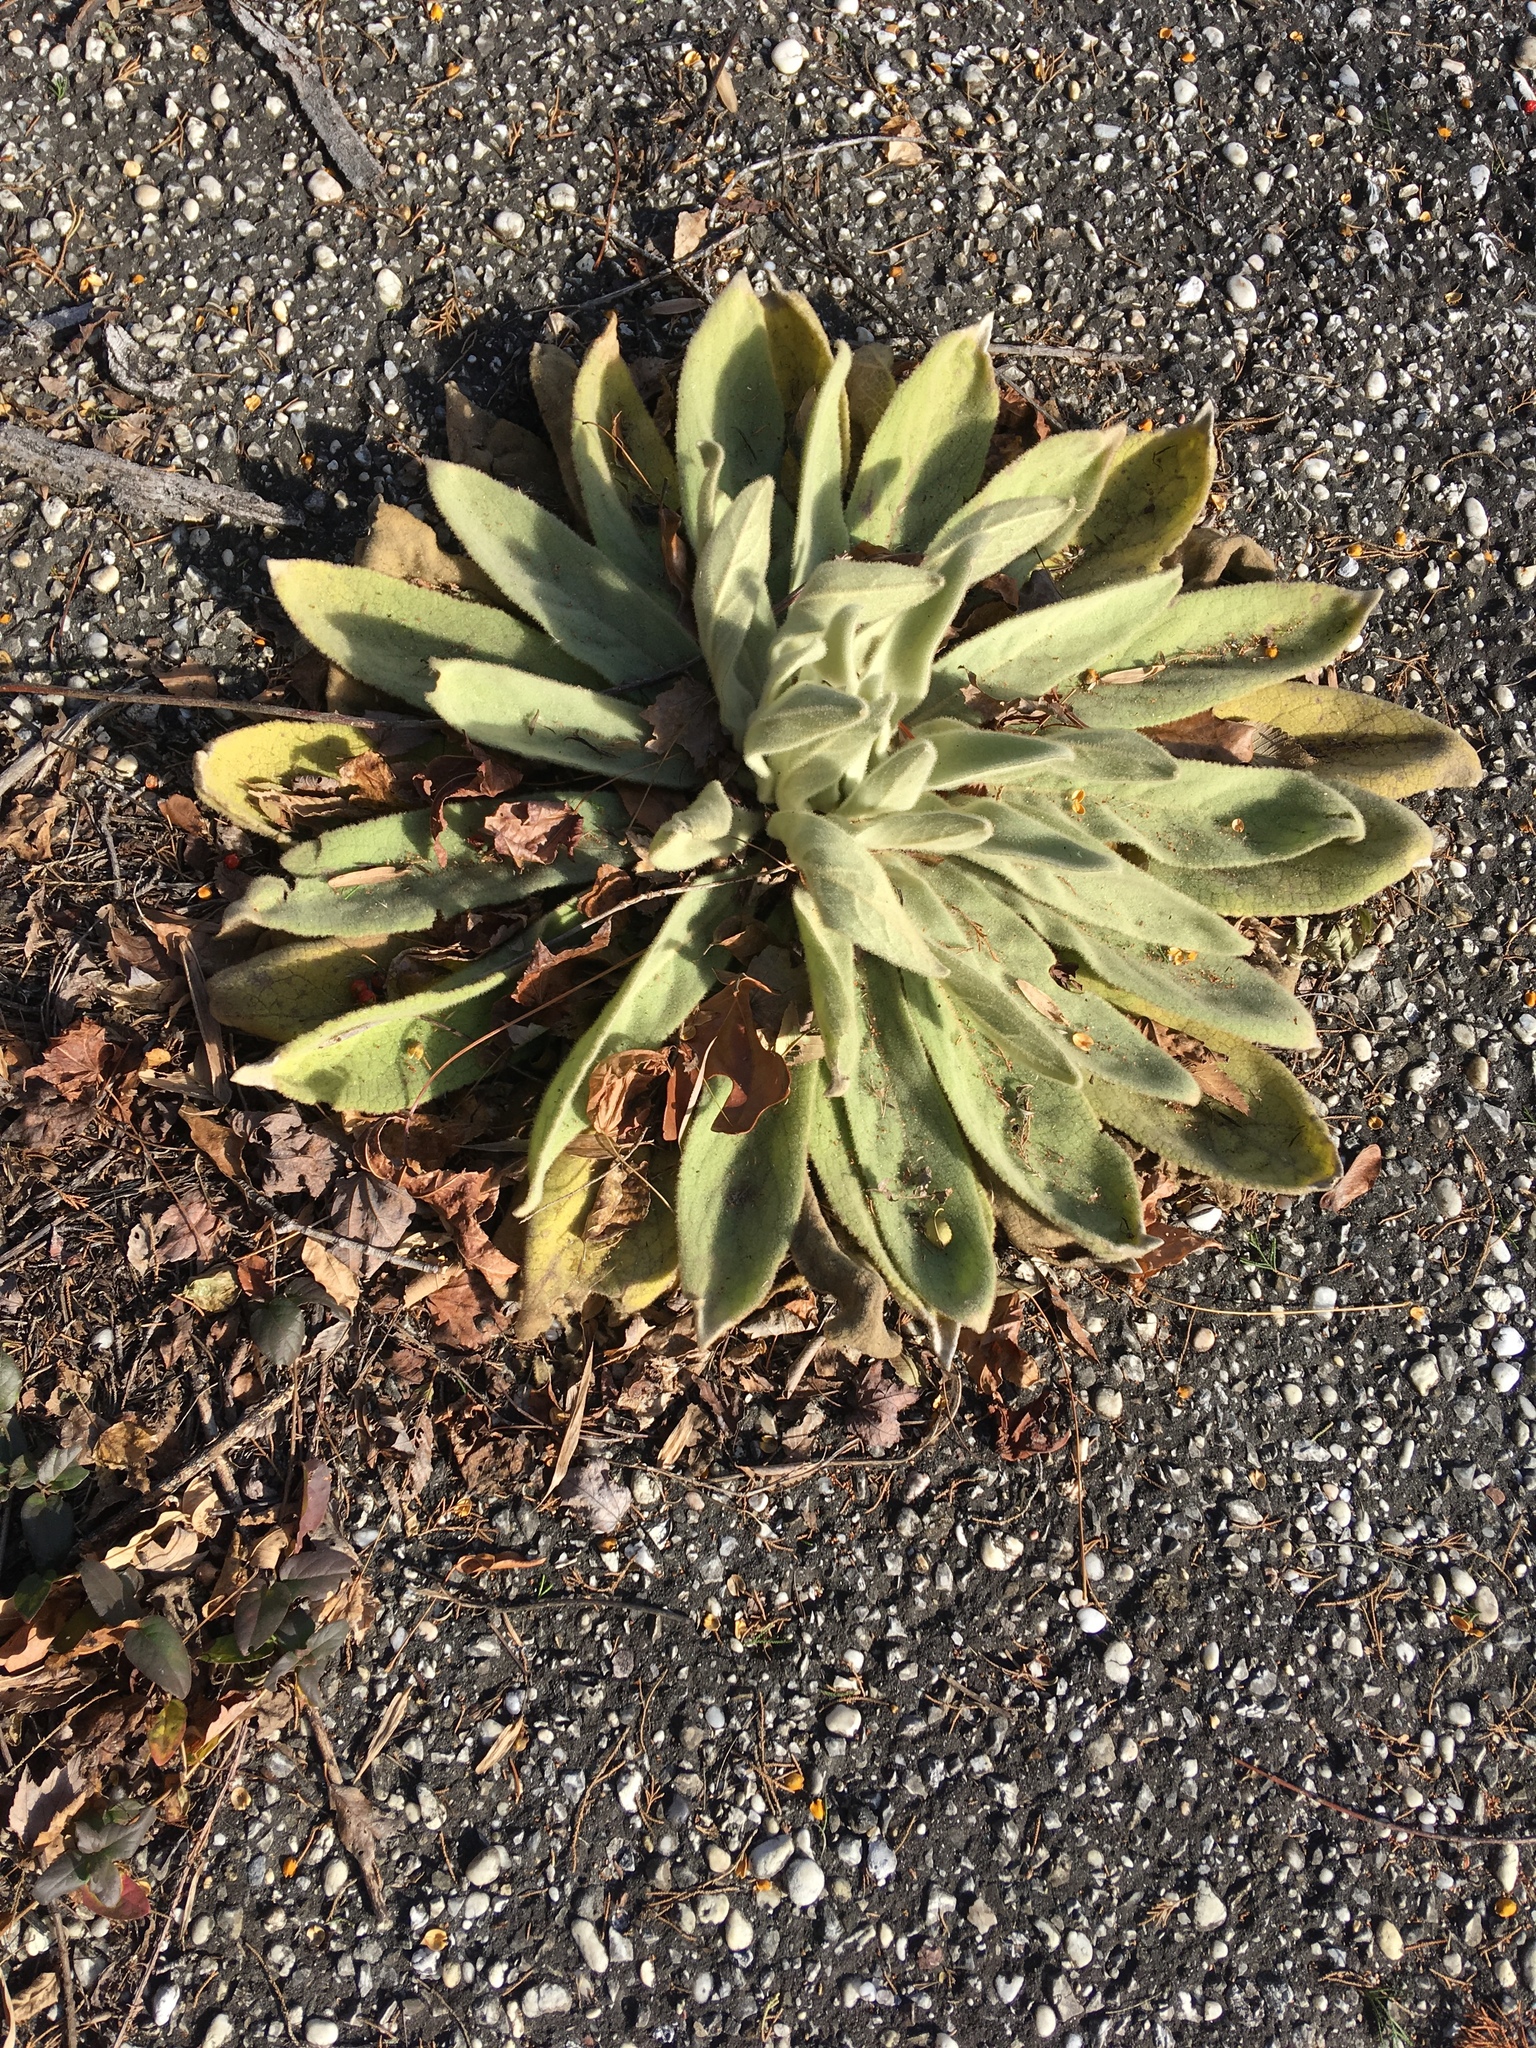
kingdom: Plantae
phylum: Tracheophyta
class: Magnoliopsida
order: Lamiales
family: Scrophulariaceae
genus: Verbascum
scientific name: Verbascum thapsus
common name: Common mullein
